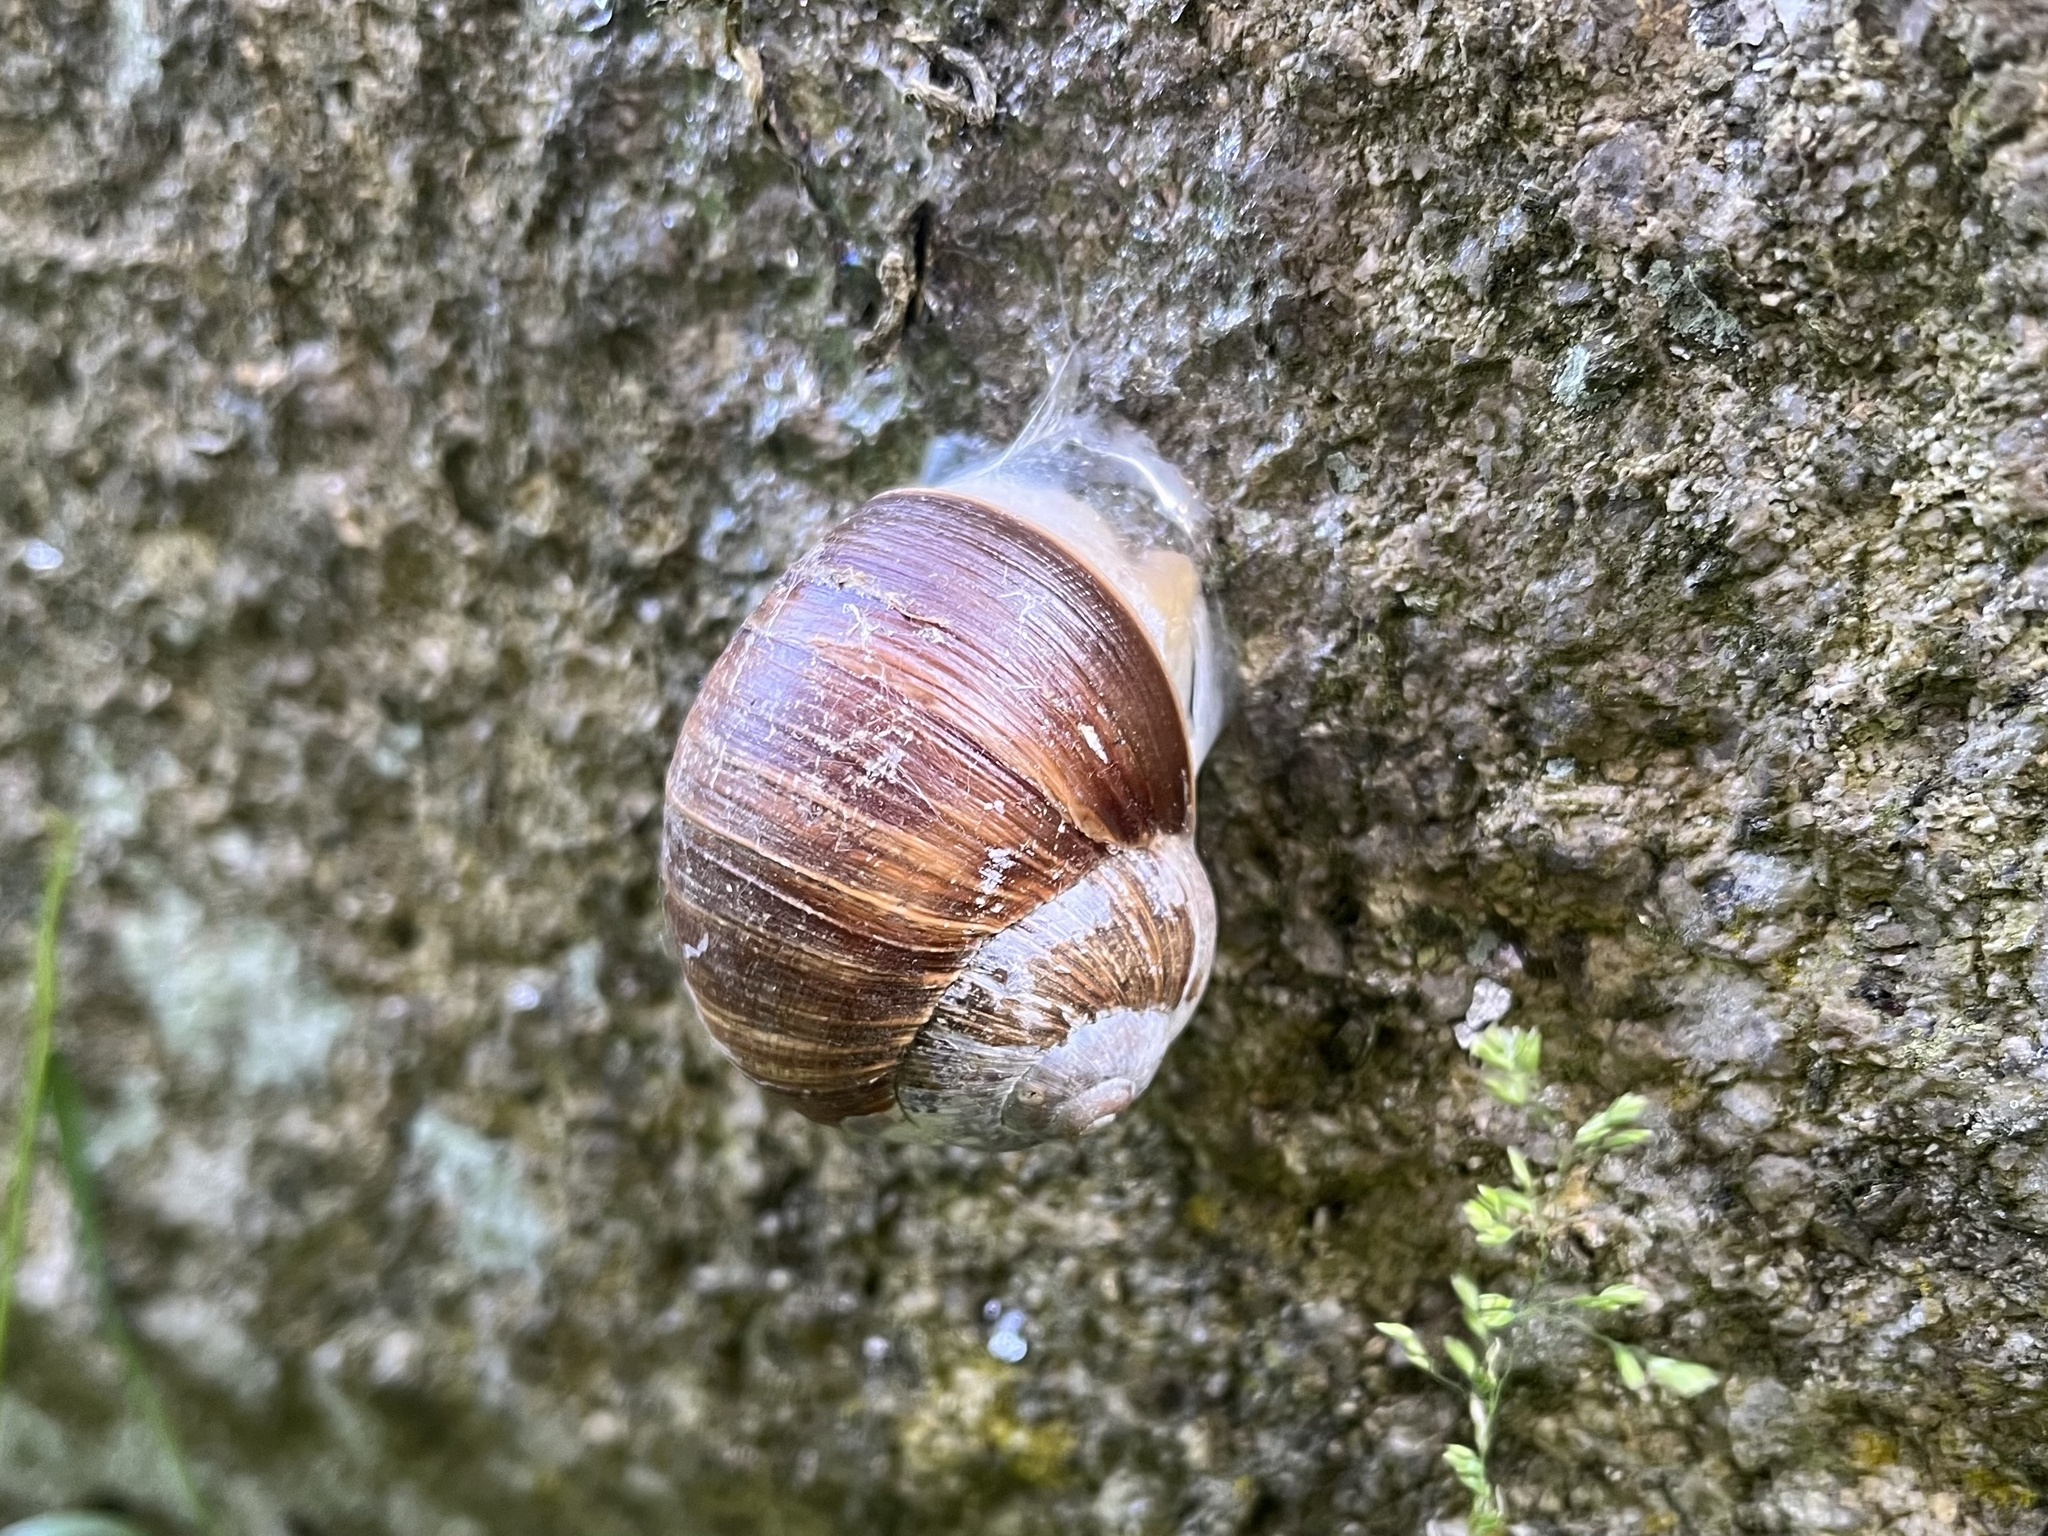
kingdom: Animalia
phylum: Mollusca
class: Gastropoda
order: Stylommatophora
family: Helicidae
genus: Helix
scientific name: Helix pomatia
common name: Roman snail
